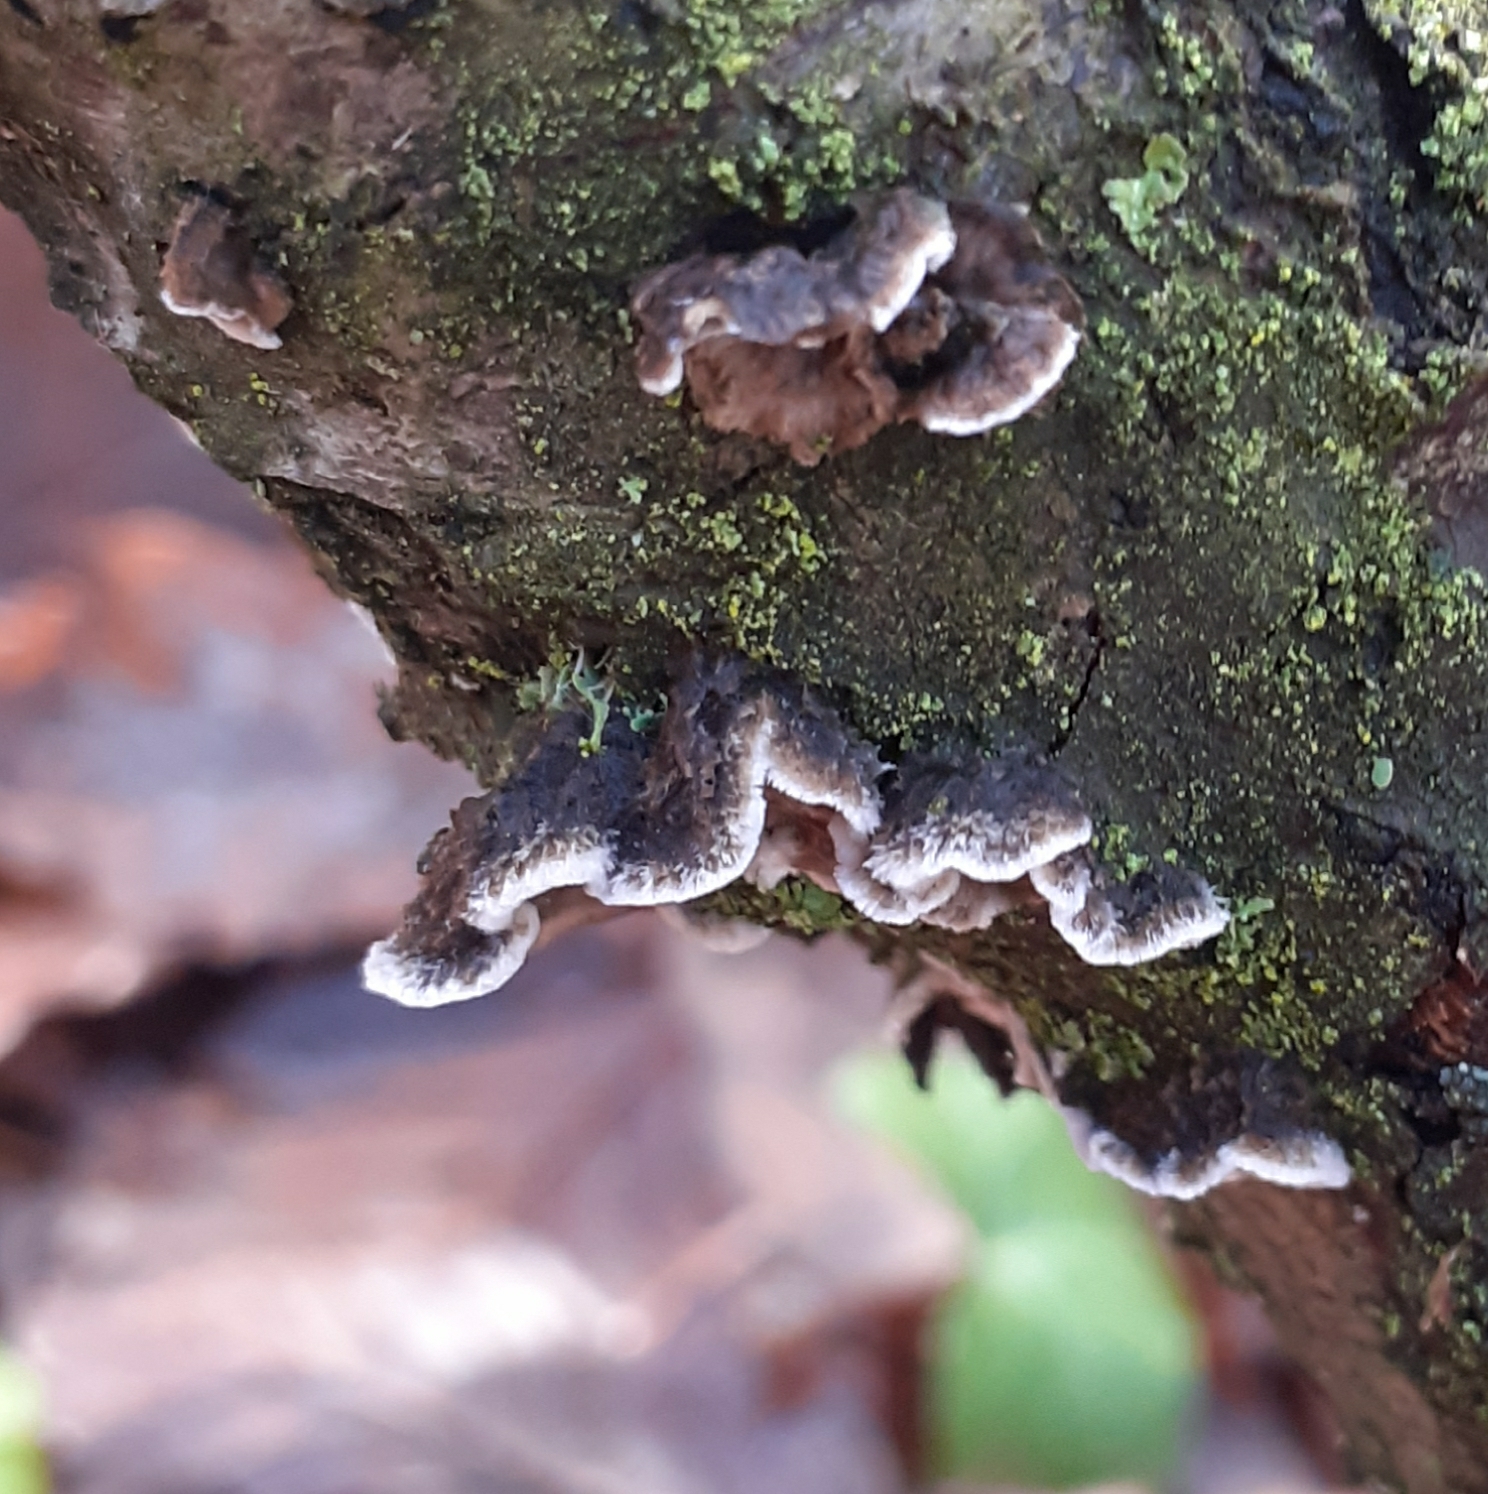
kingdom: Fungi
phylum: Basidiomycota
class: Agaricomycetes
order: Polyporales
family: Phanerochaetaceae
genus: Bjerkandera
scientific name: Bjerkandera adusta
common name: Smoky bracket
